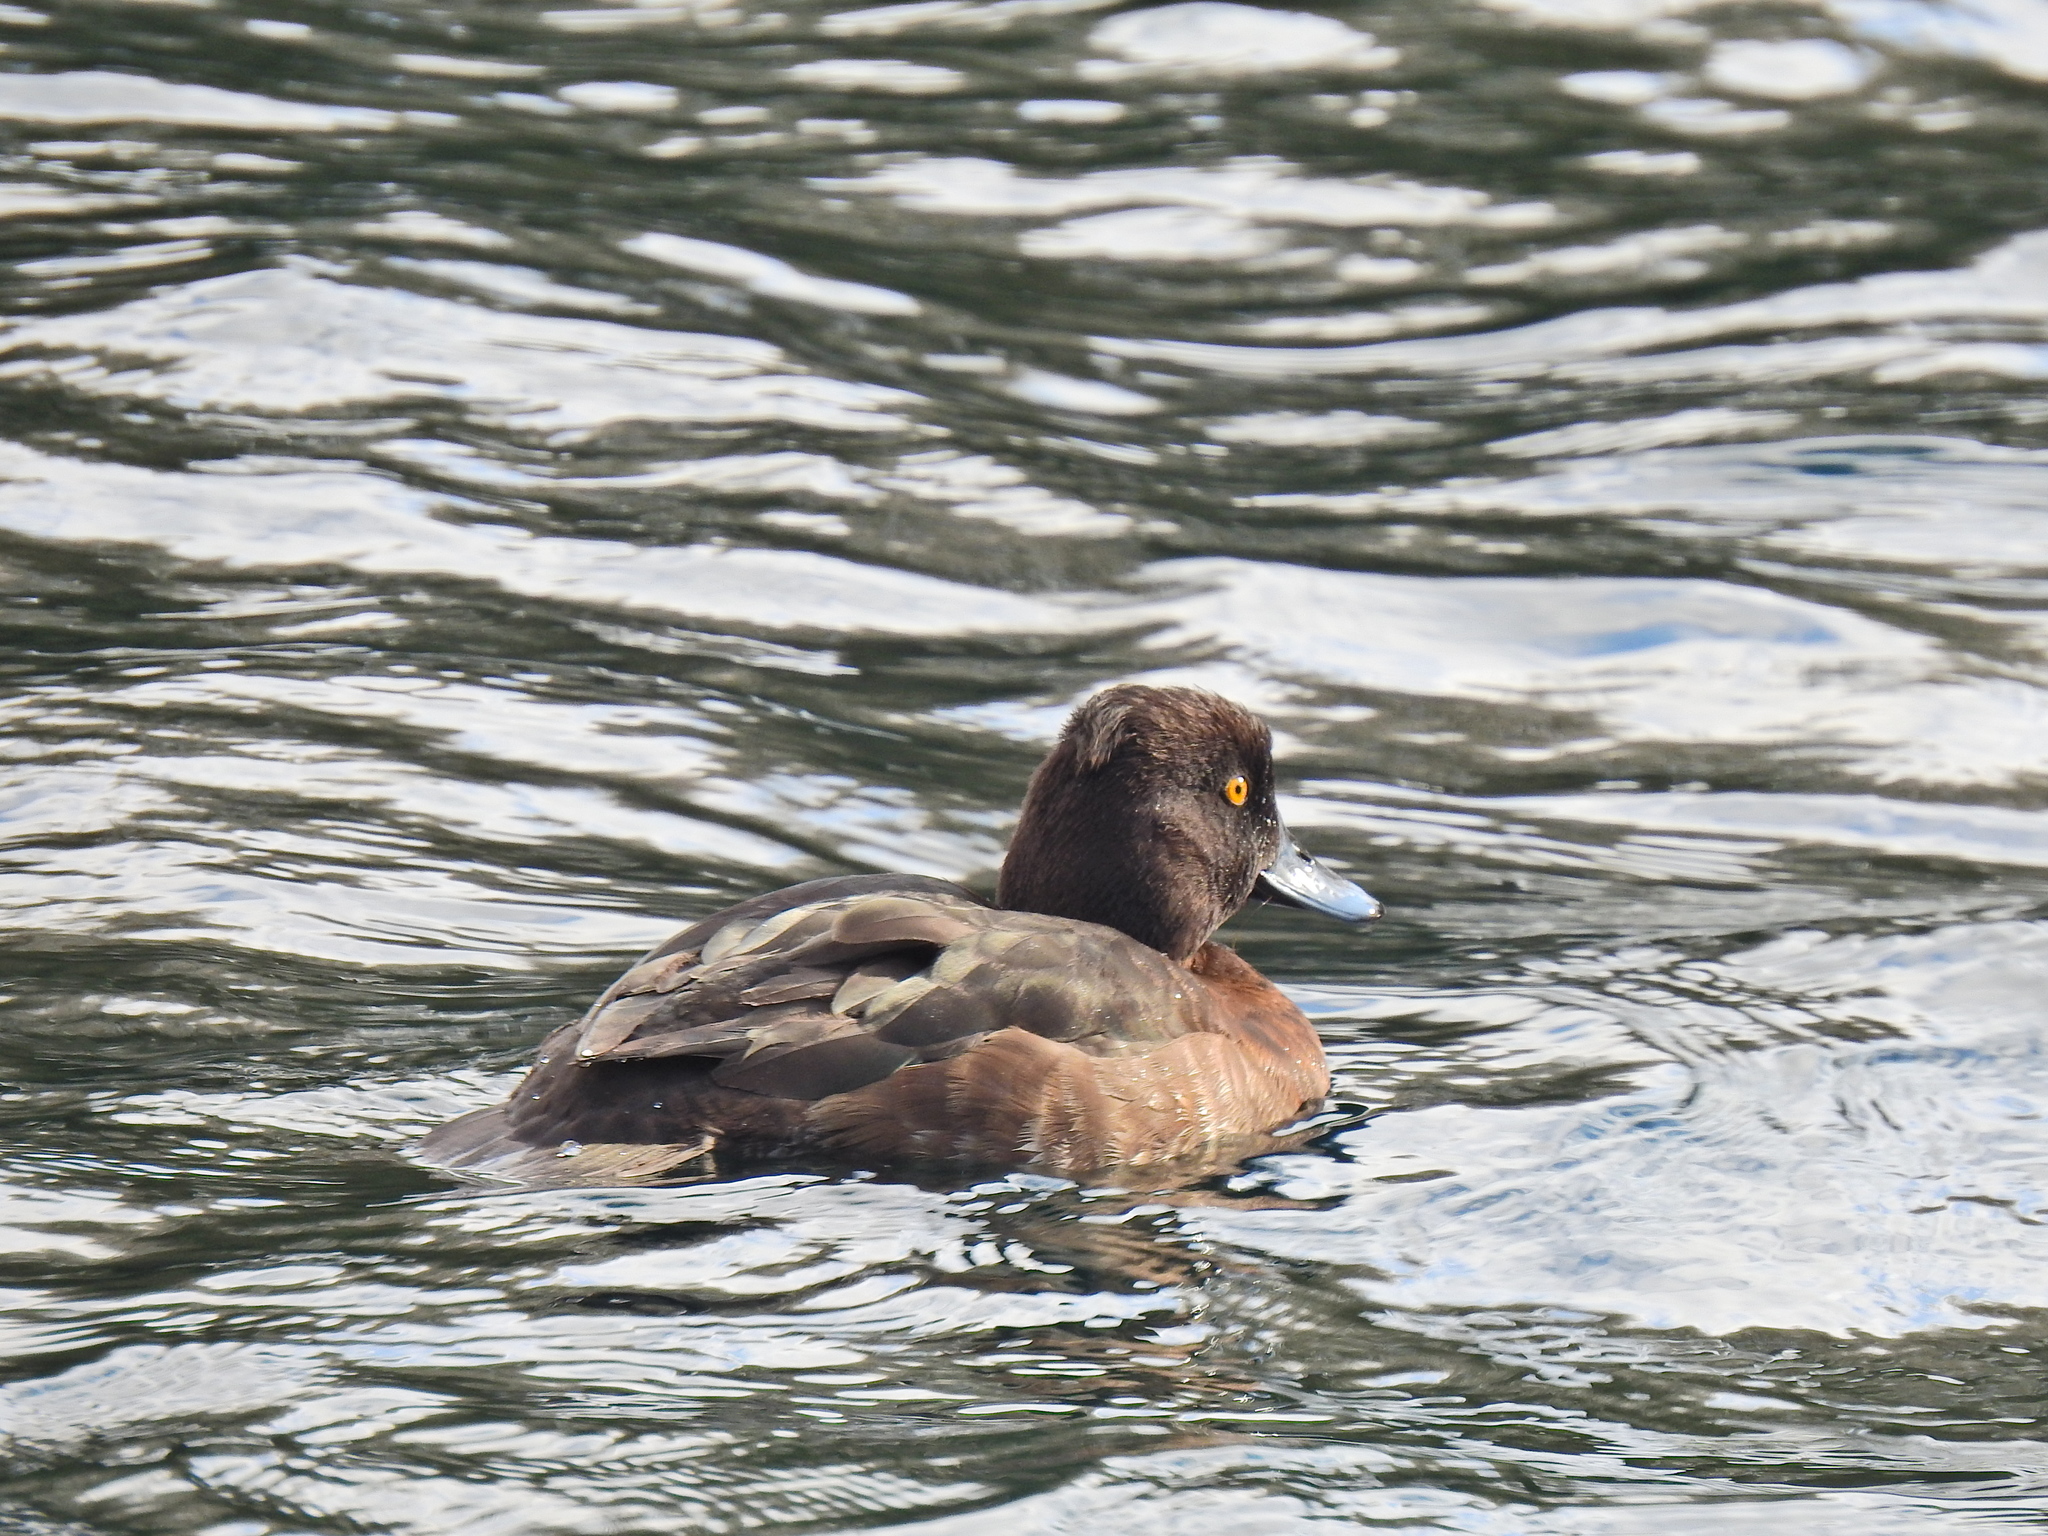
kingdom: Animalia
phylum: Chordata
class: Aves
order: Anseriformes
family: Anatidae
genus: Aythya
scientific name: Aythya fuligula
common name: Tufted duck
